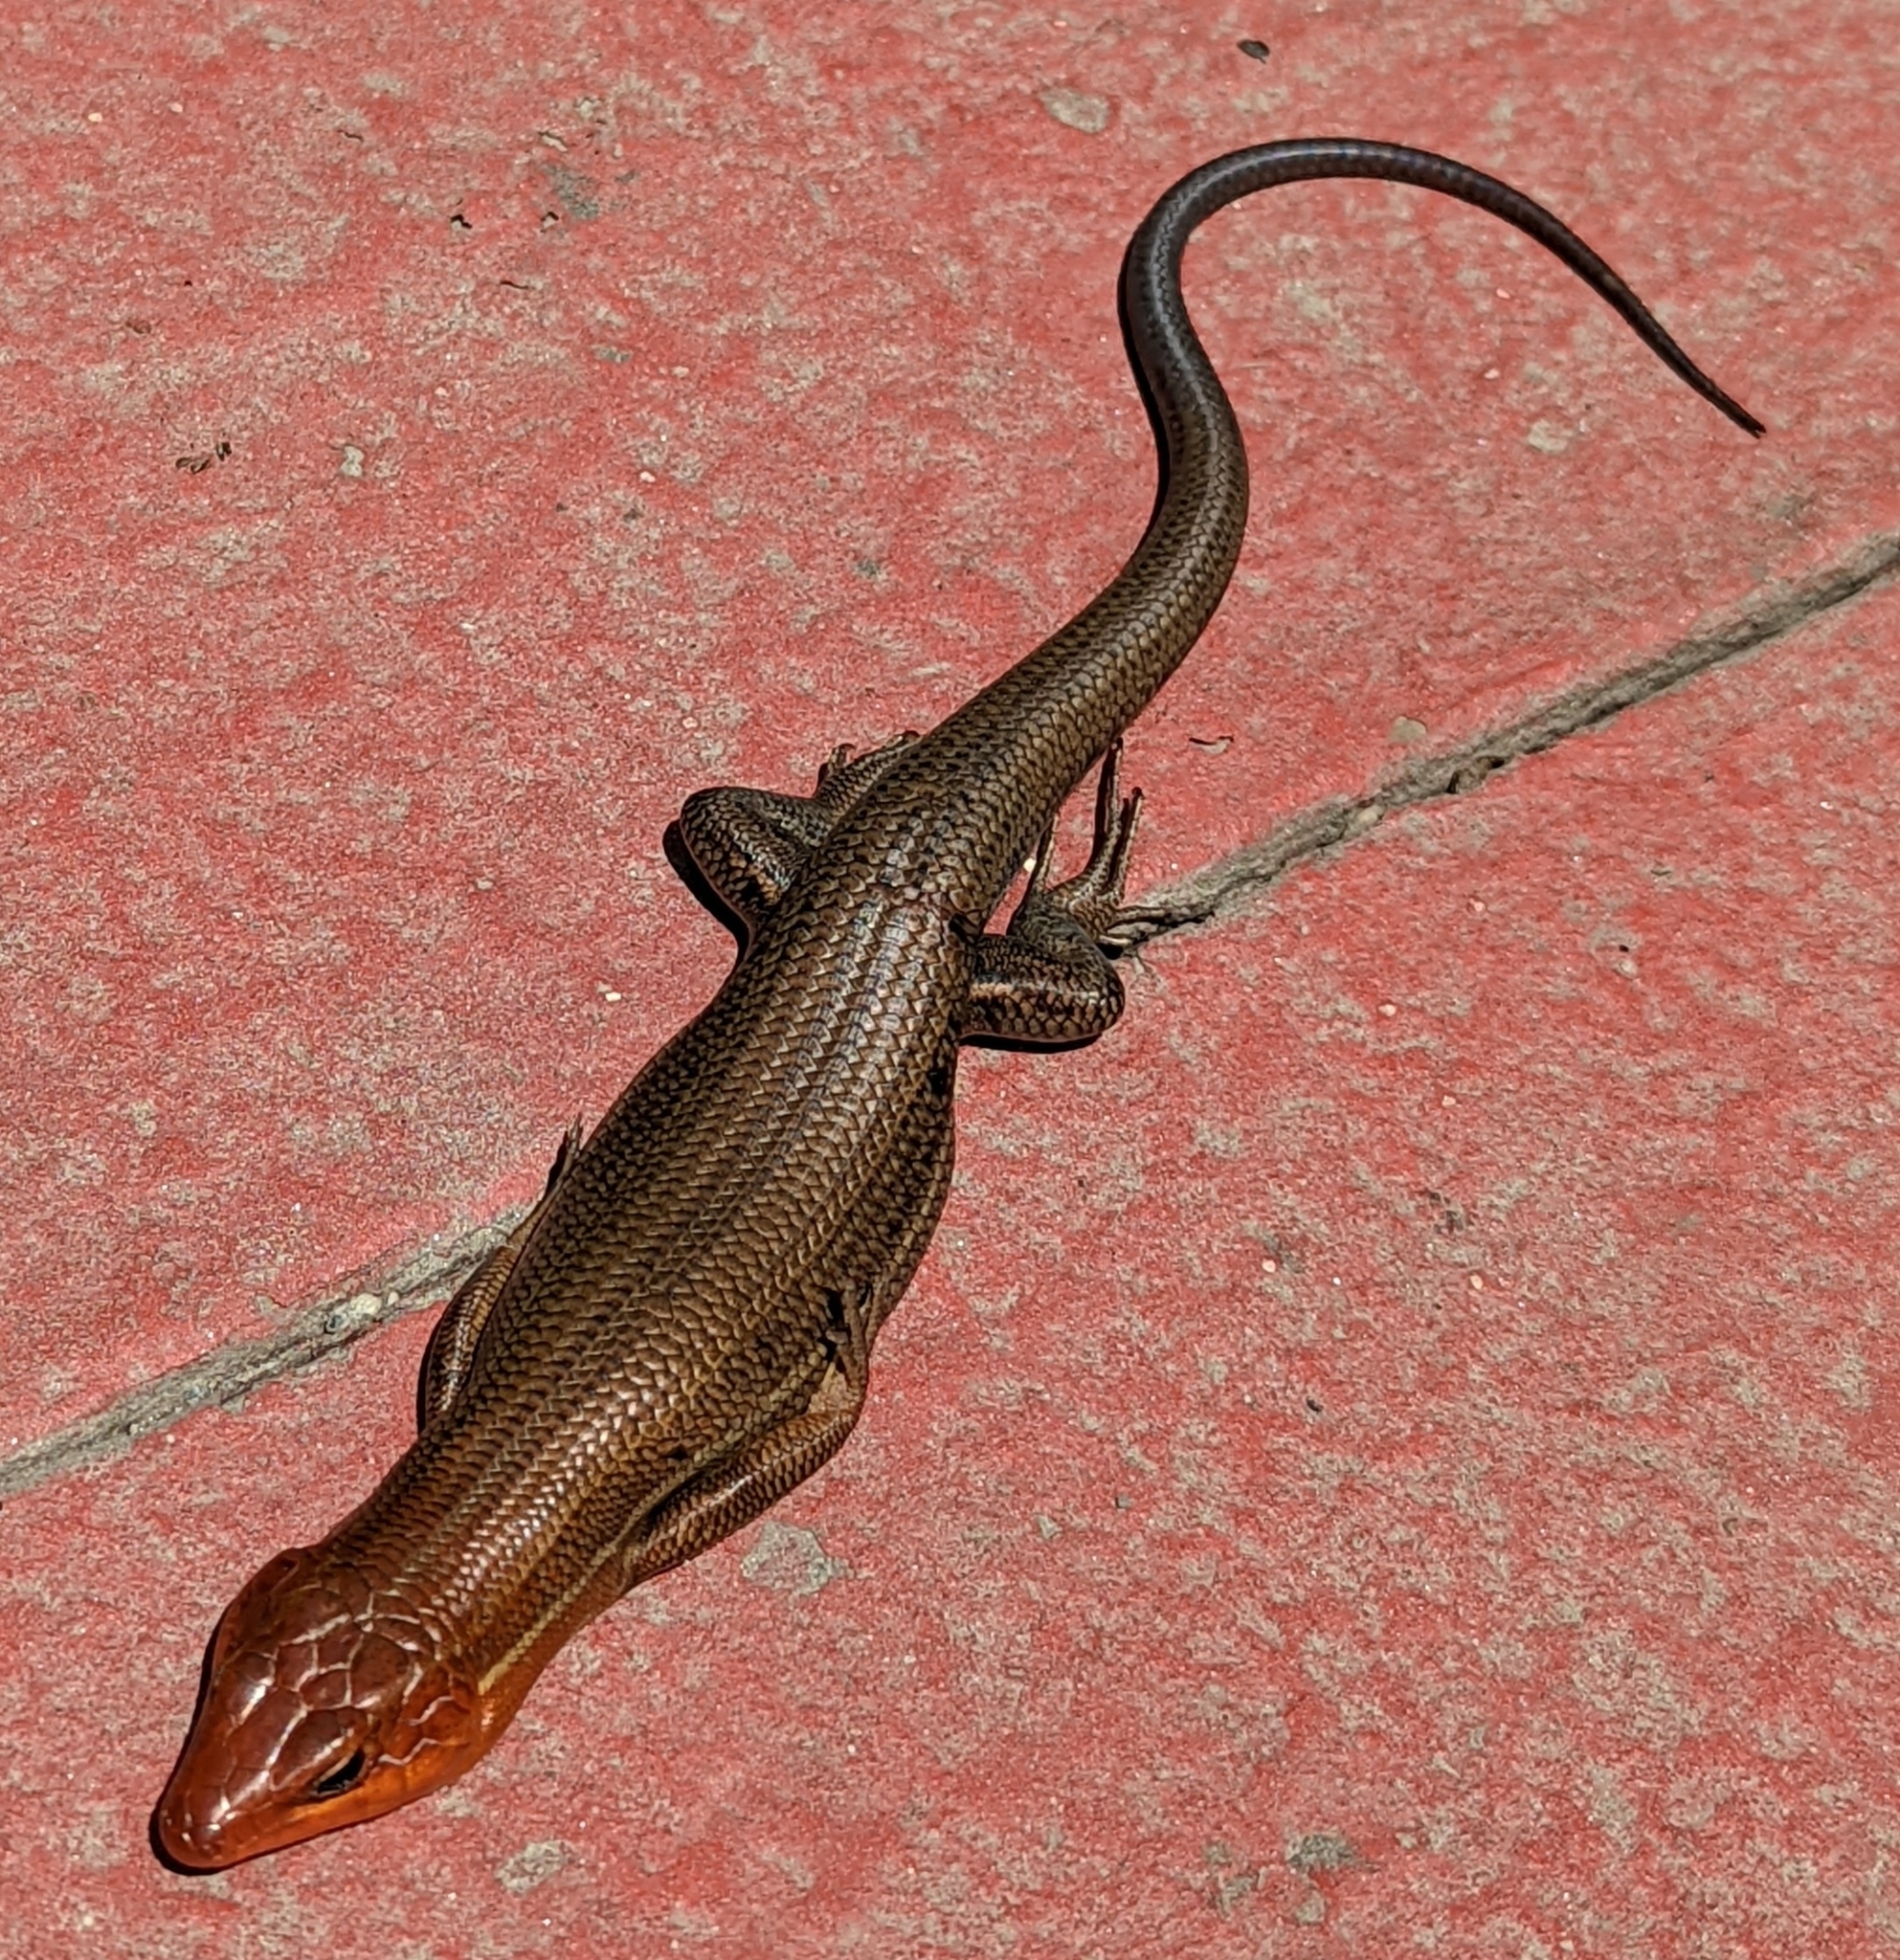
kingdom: Animalia
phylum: Chordata
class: Squamata
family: Scincidae
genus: Plestiodon
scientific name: Plestiodon laticeps
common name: Broadhead skink
